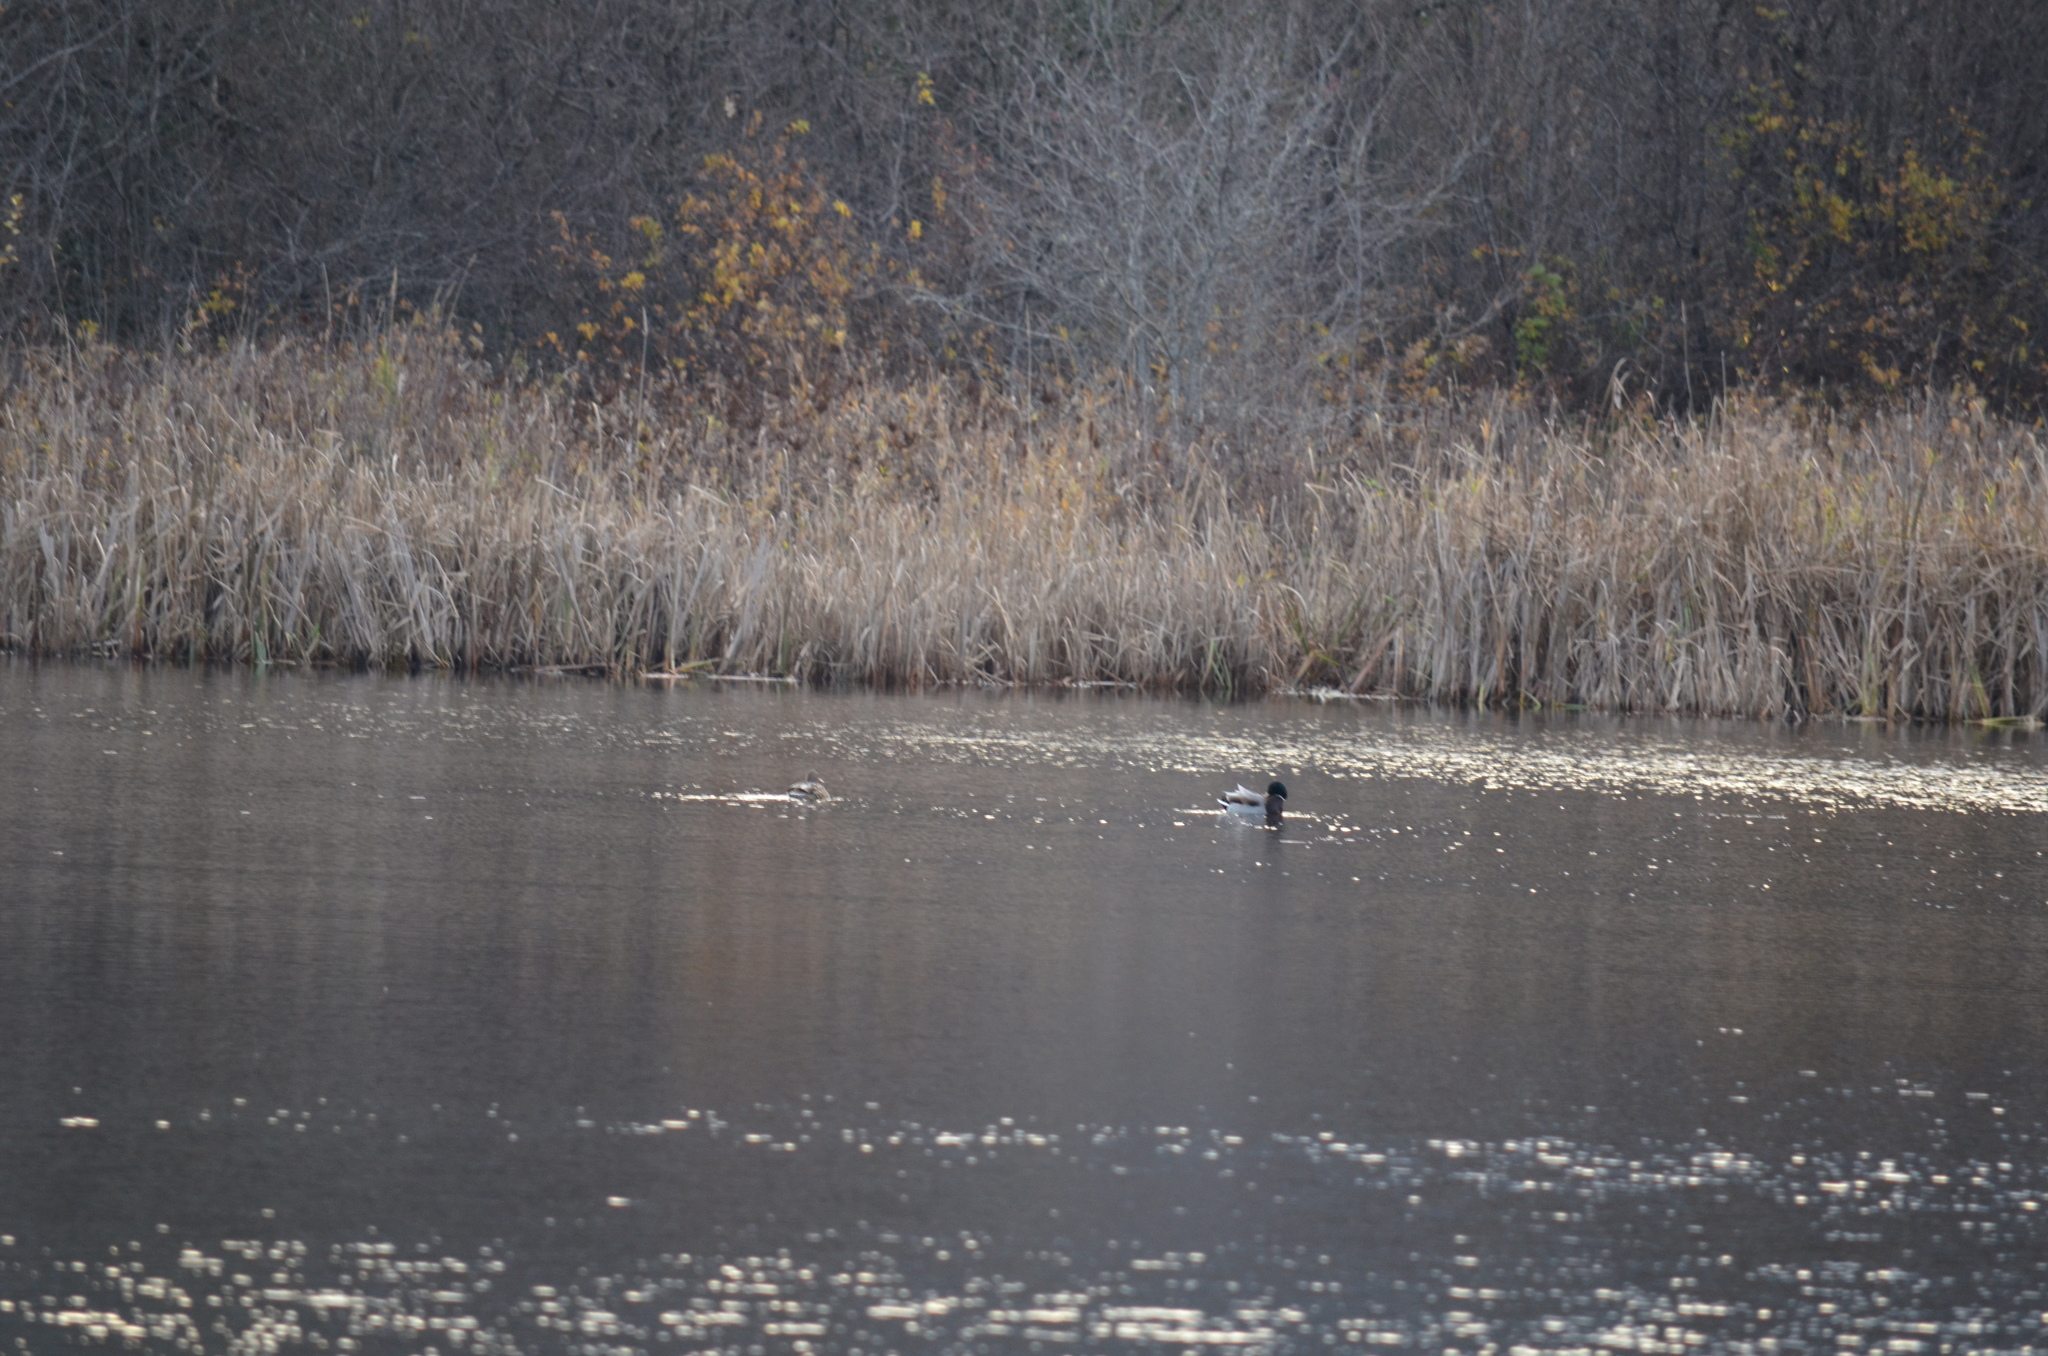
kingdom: Animalia
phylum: Chordata
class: Aves
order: Anseriformes
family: Anatidae
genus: Anas
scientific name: Anas platyrhynchos
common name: Mallard
